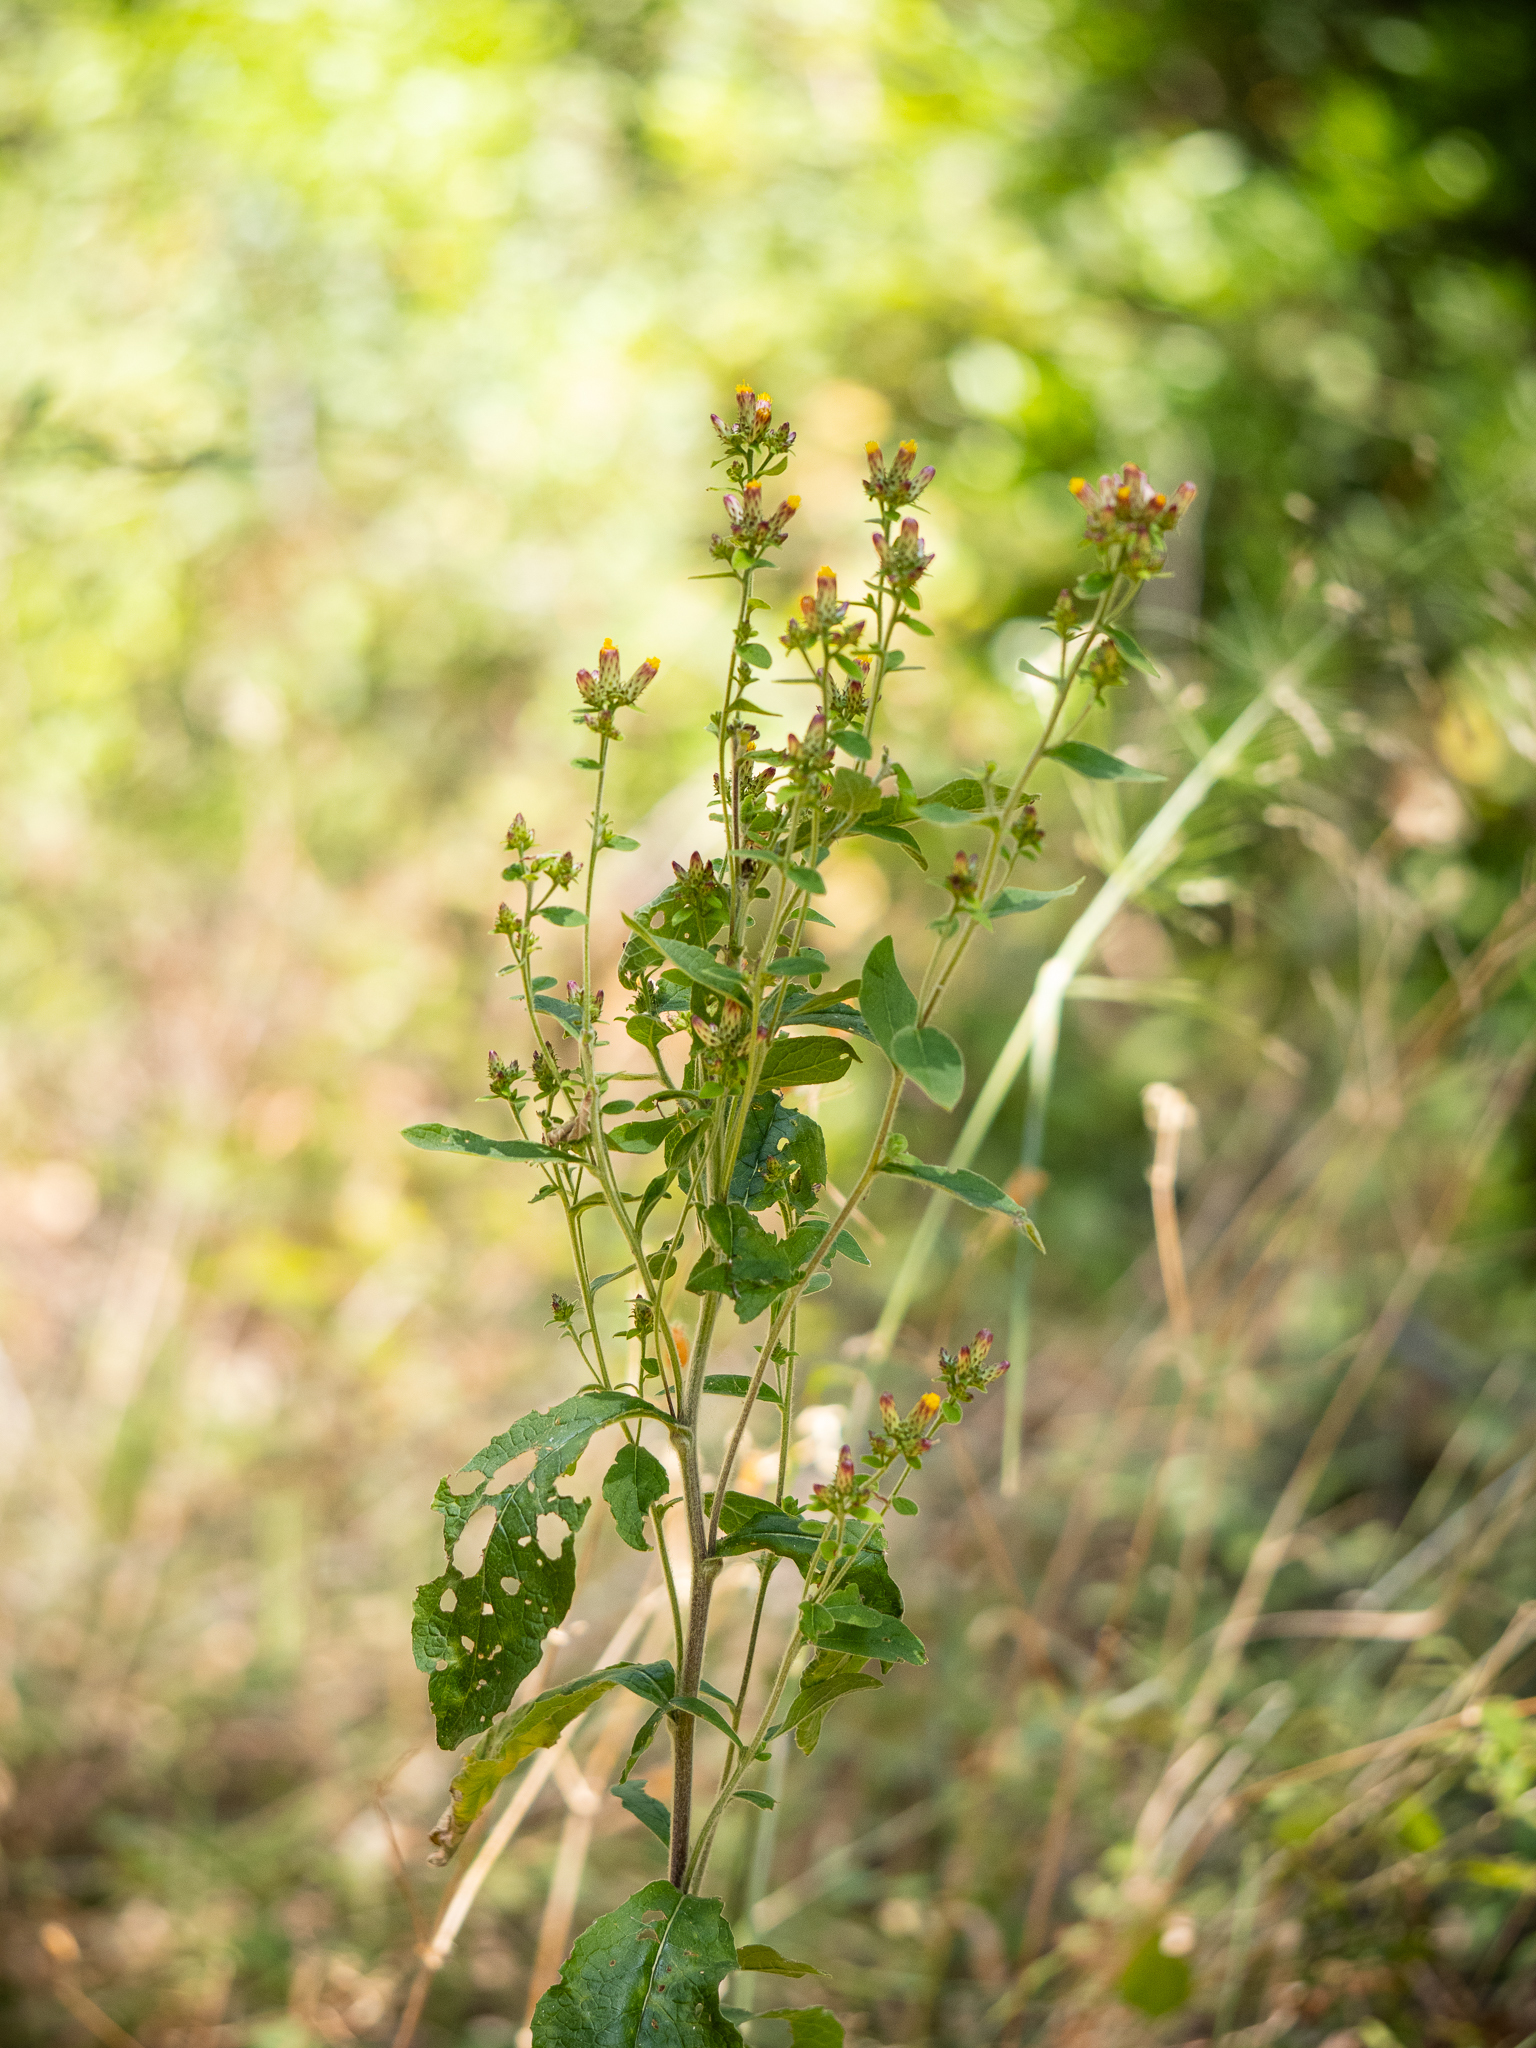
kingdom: Plantae
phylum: Tracheophyta
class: Magnoliopsida
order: Asterales
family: Asteraceae
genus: Pentanema
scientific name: Pentanema squarrosum
